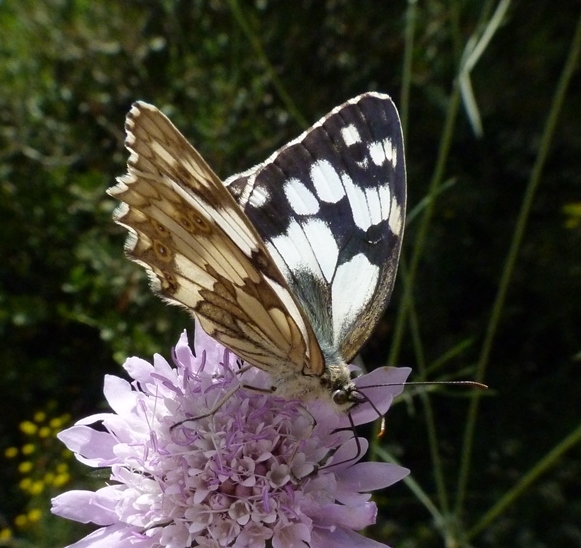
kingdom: Animalia
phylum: Arthropoda
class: Insecta
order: Lepidoptera
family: Nymphalidae
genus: Melanargia
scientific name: Melanargia lachesis
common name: Iberian marbled white
